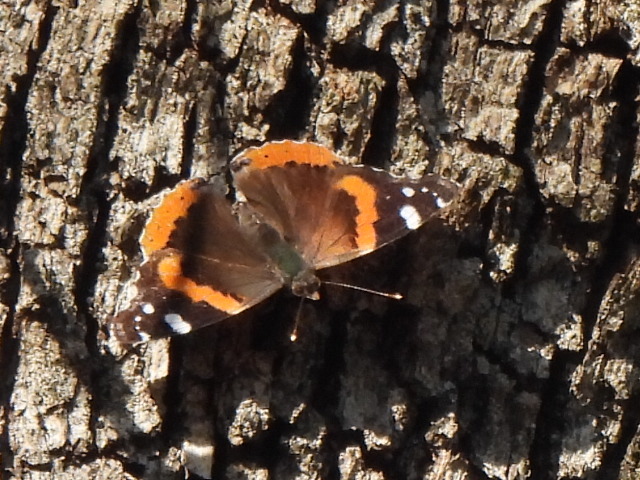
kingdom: Animalia
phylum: Arthropoda
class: Insecta
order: Lepidoptera
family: Nymphalidae
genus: Vanessa
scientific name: Vanessa atalanta
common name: Red admiral
